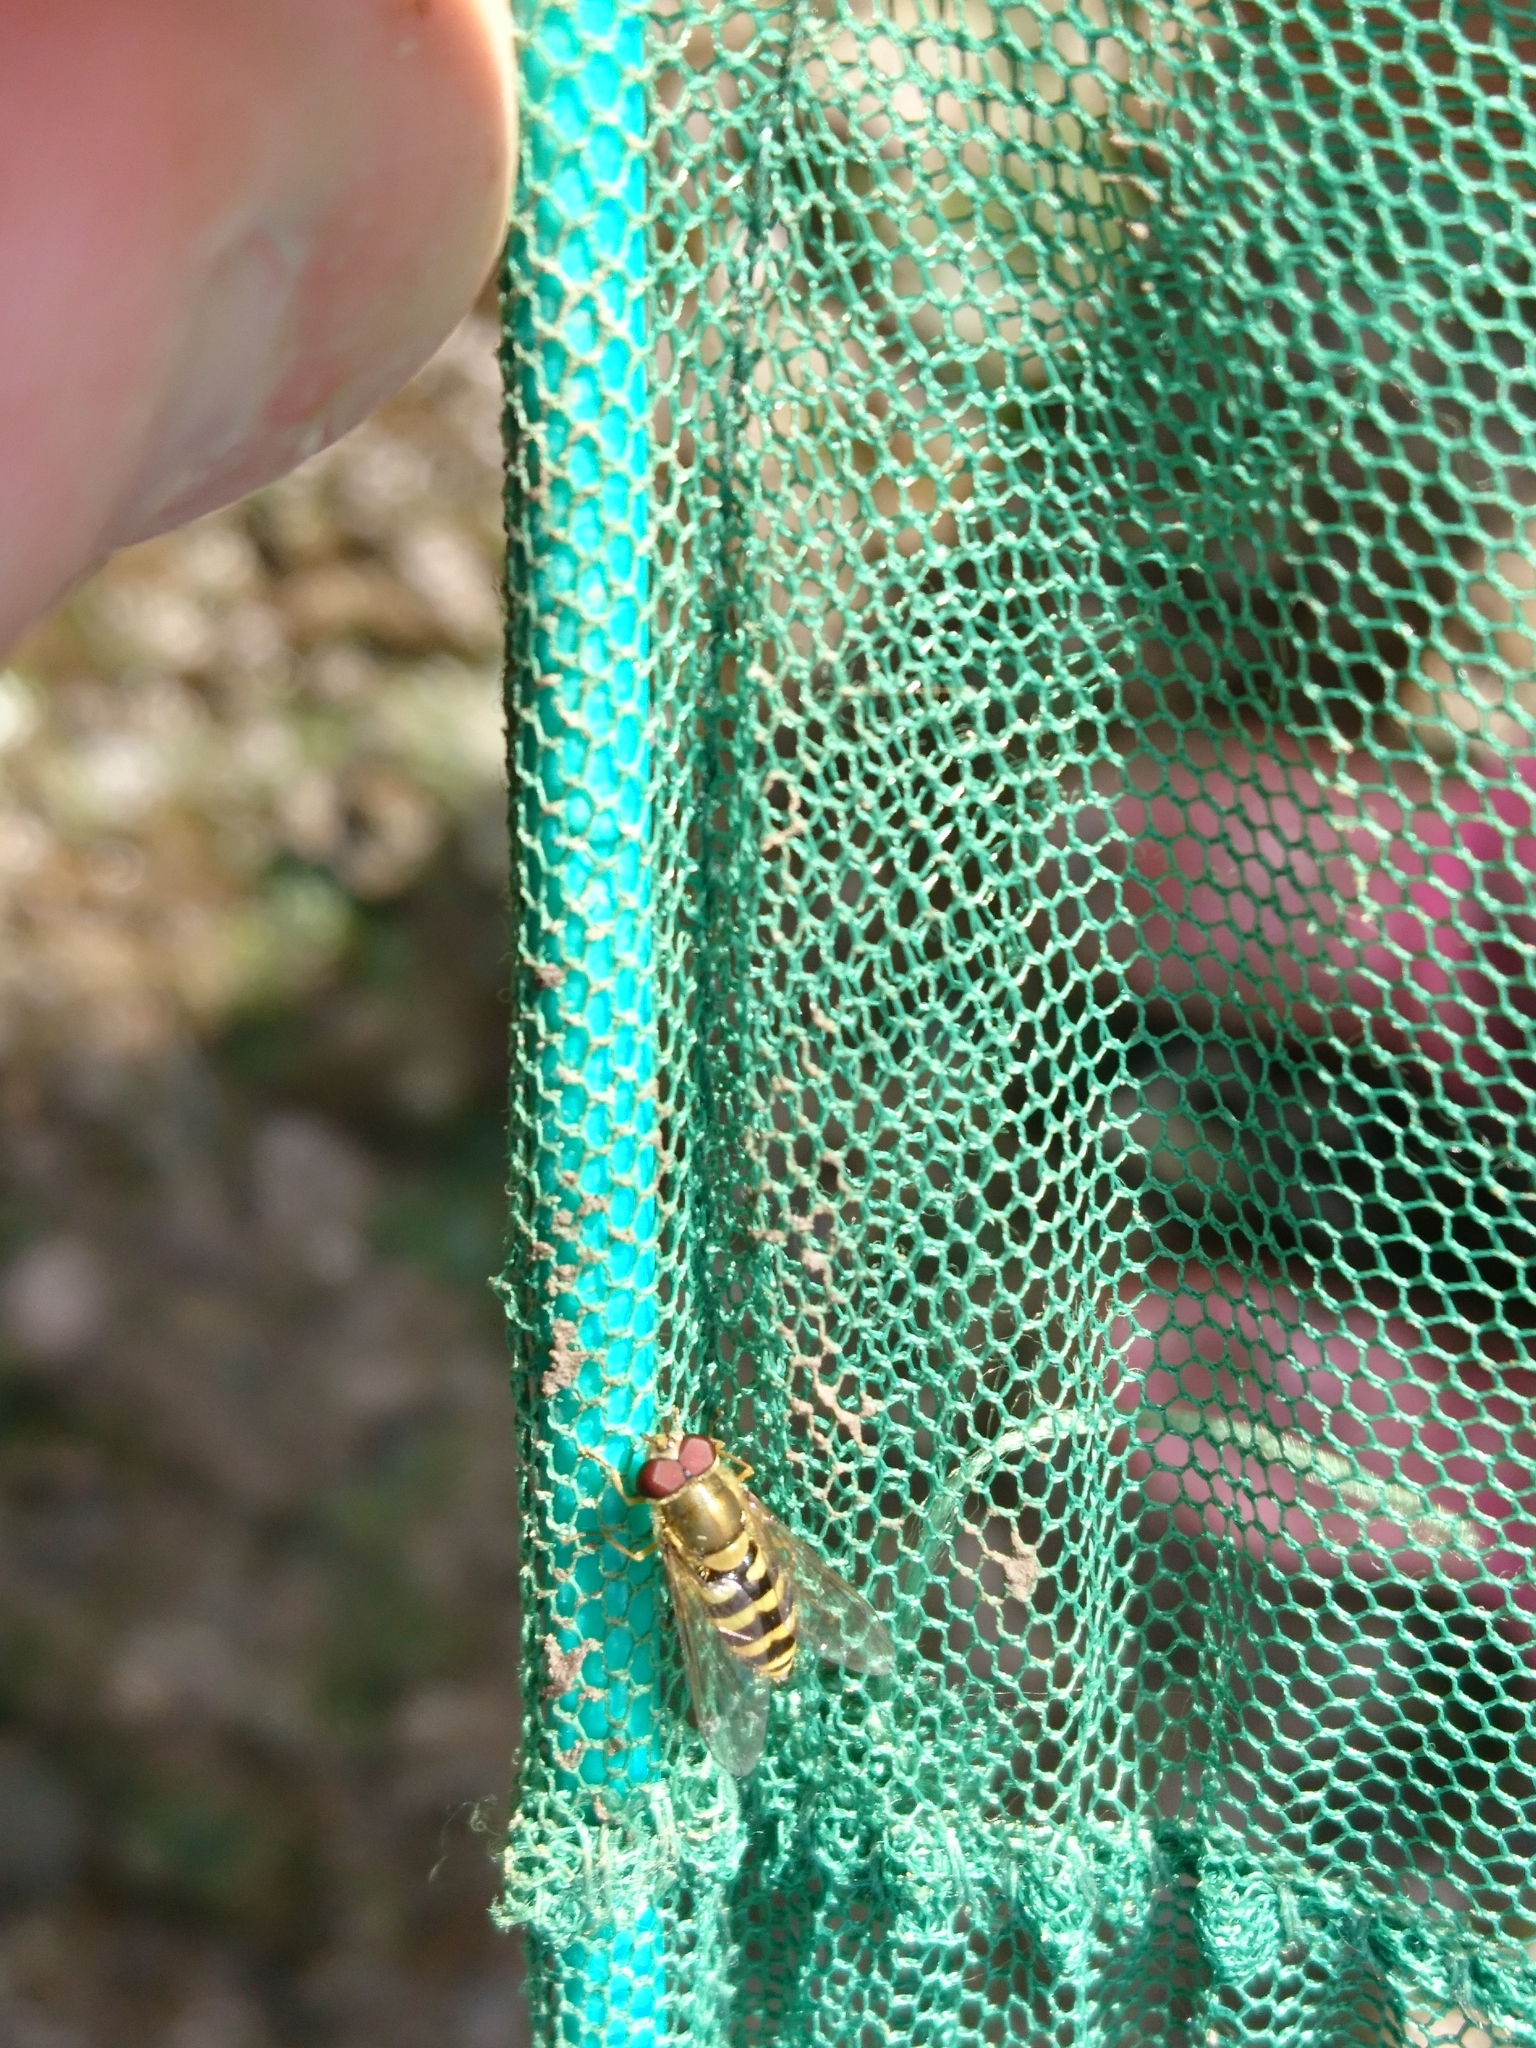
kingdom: Animalia
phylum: Arthropoda
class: Insecta
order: Diptera
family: Syrphidae
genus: Syrphus
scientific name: Syrphus
